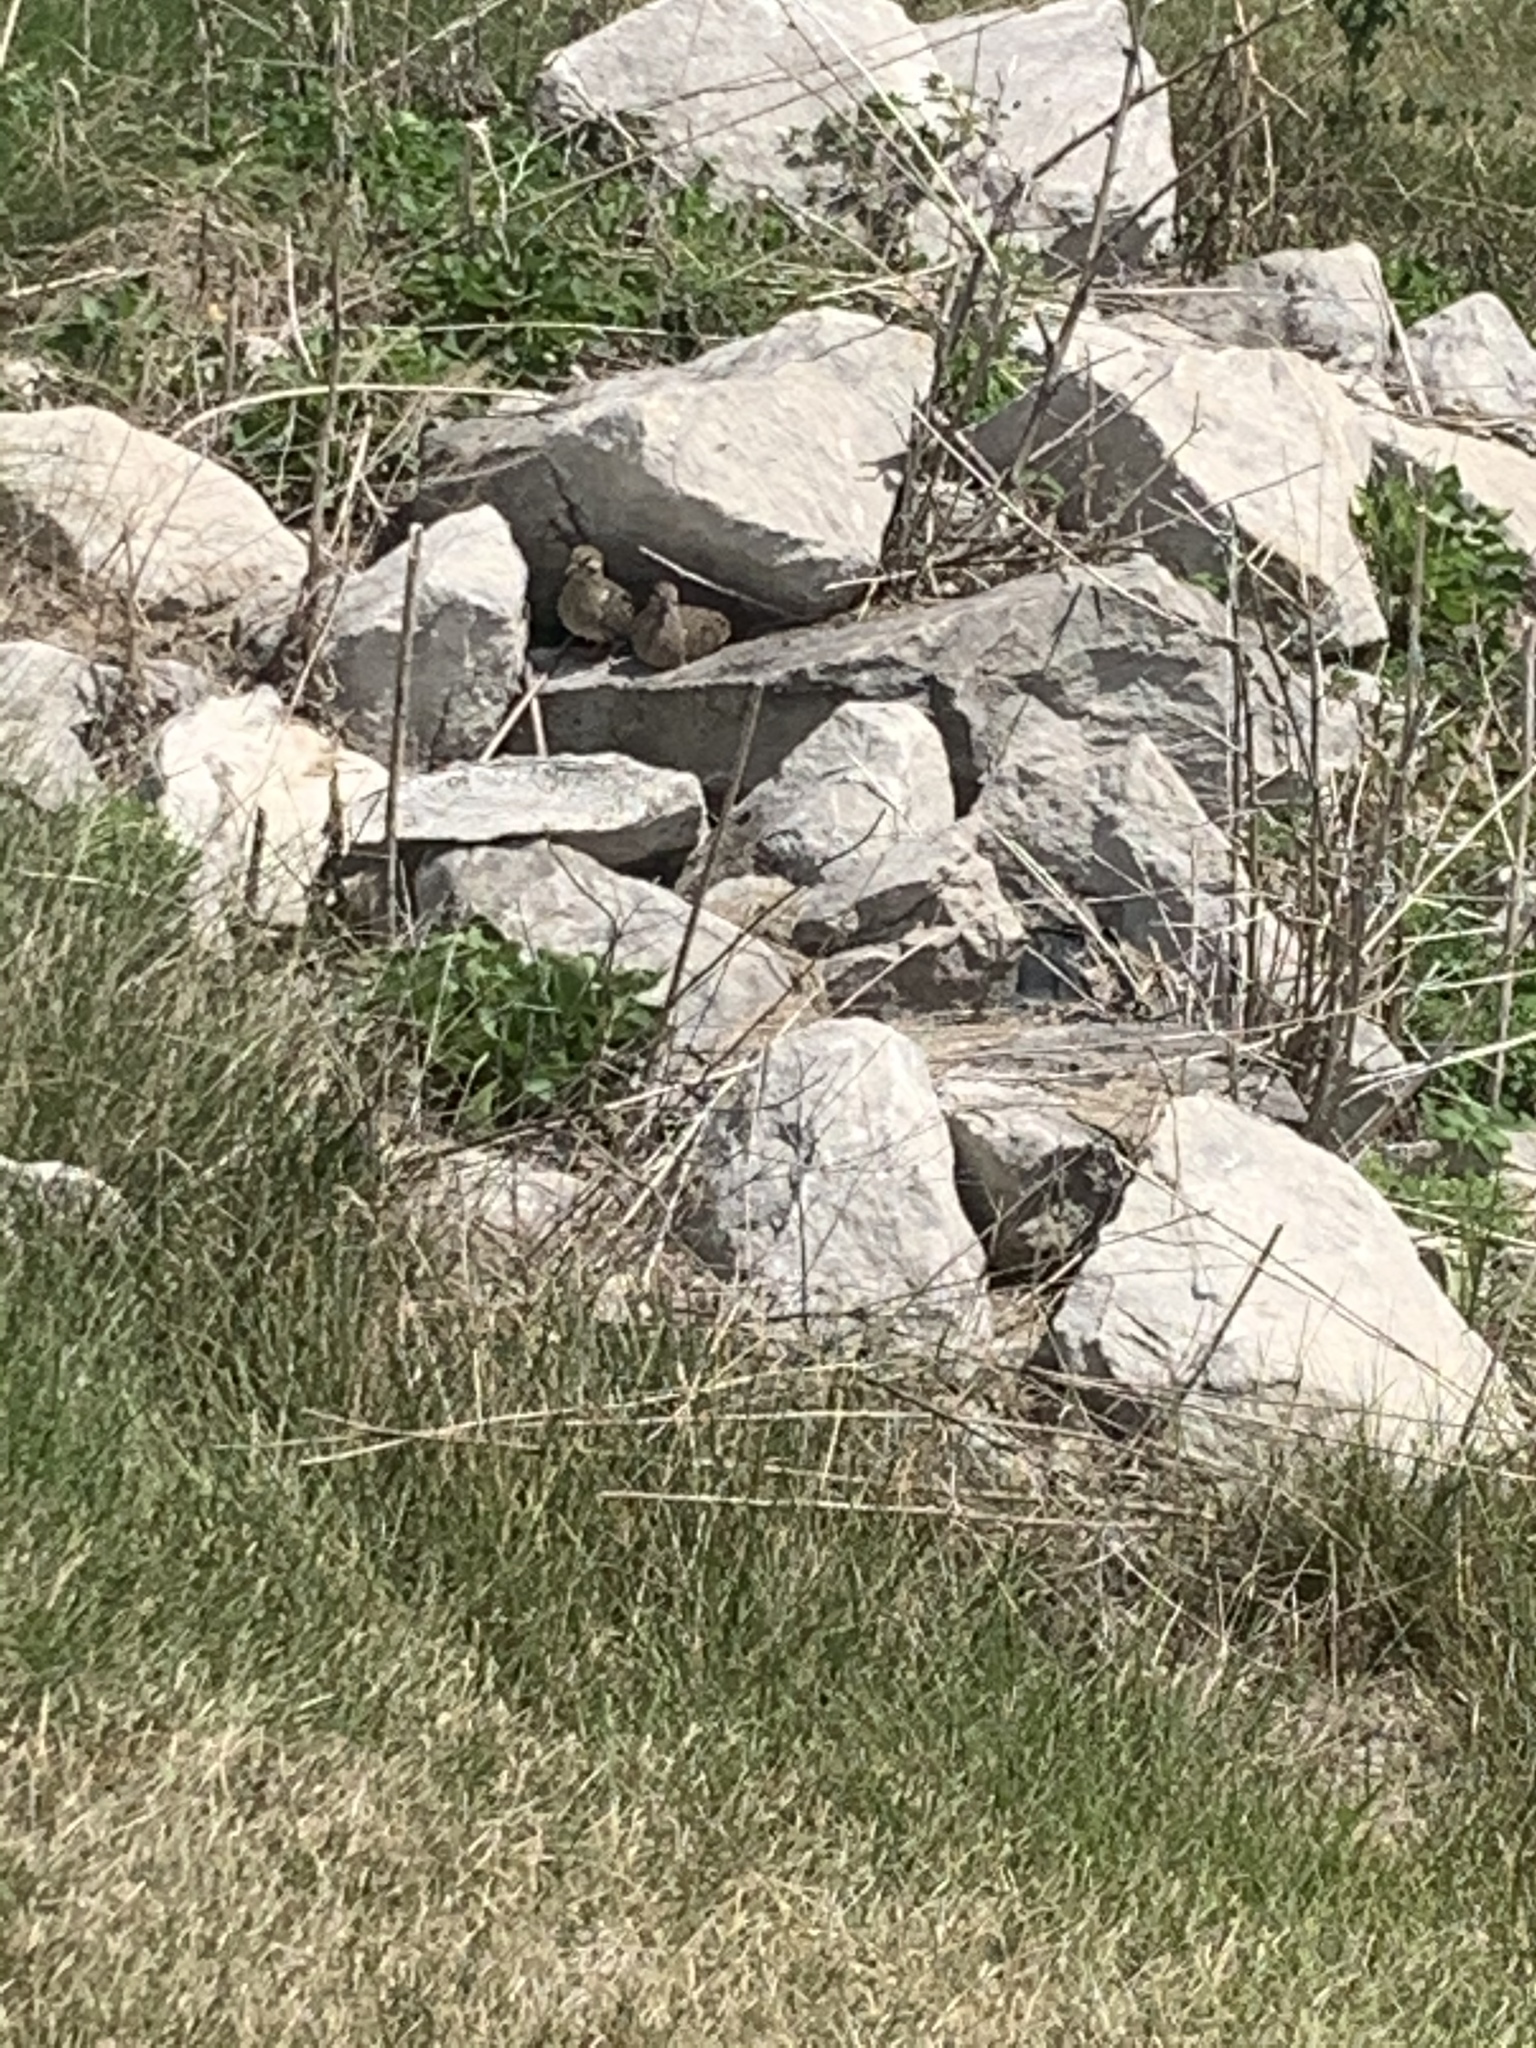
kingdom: Animalia
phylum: Chordata
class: Aves
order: Columbiformes
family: Columbidae
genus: Zenaida
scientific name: Zenaida macroura
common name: Mourning dove
